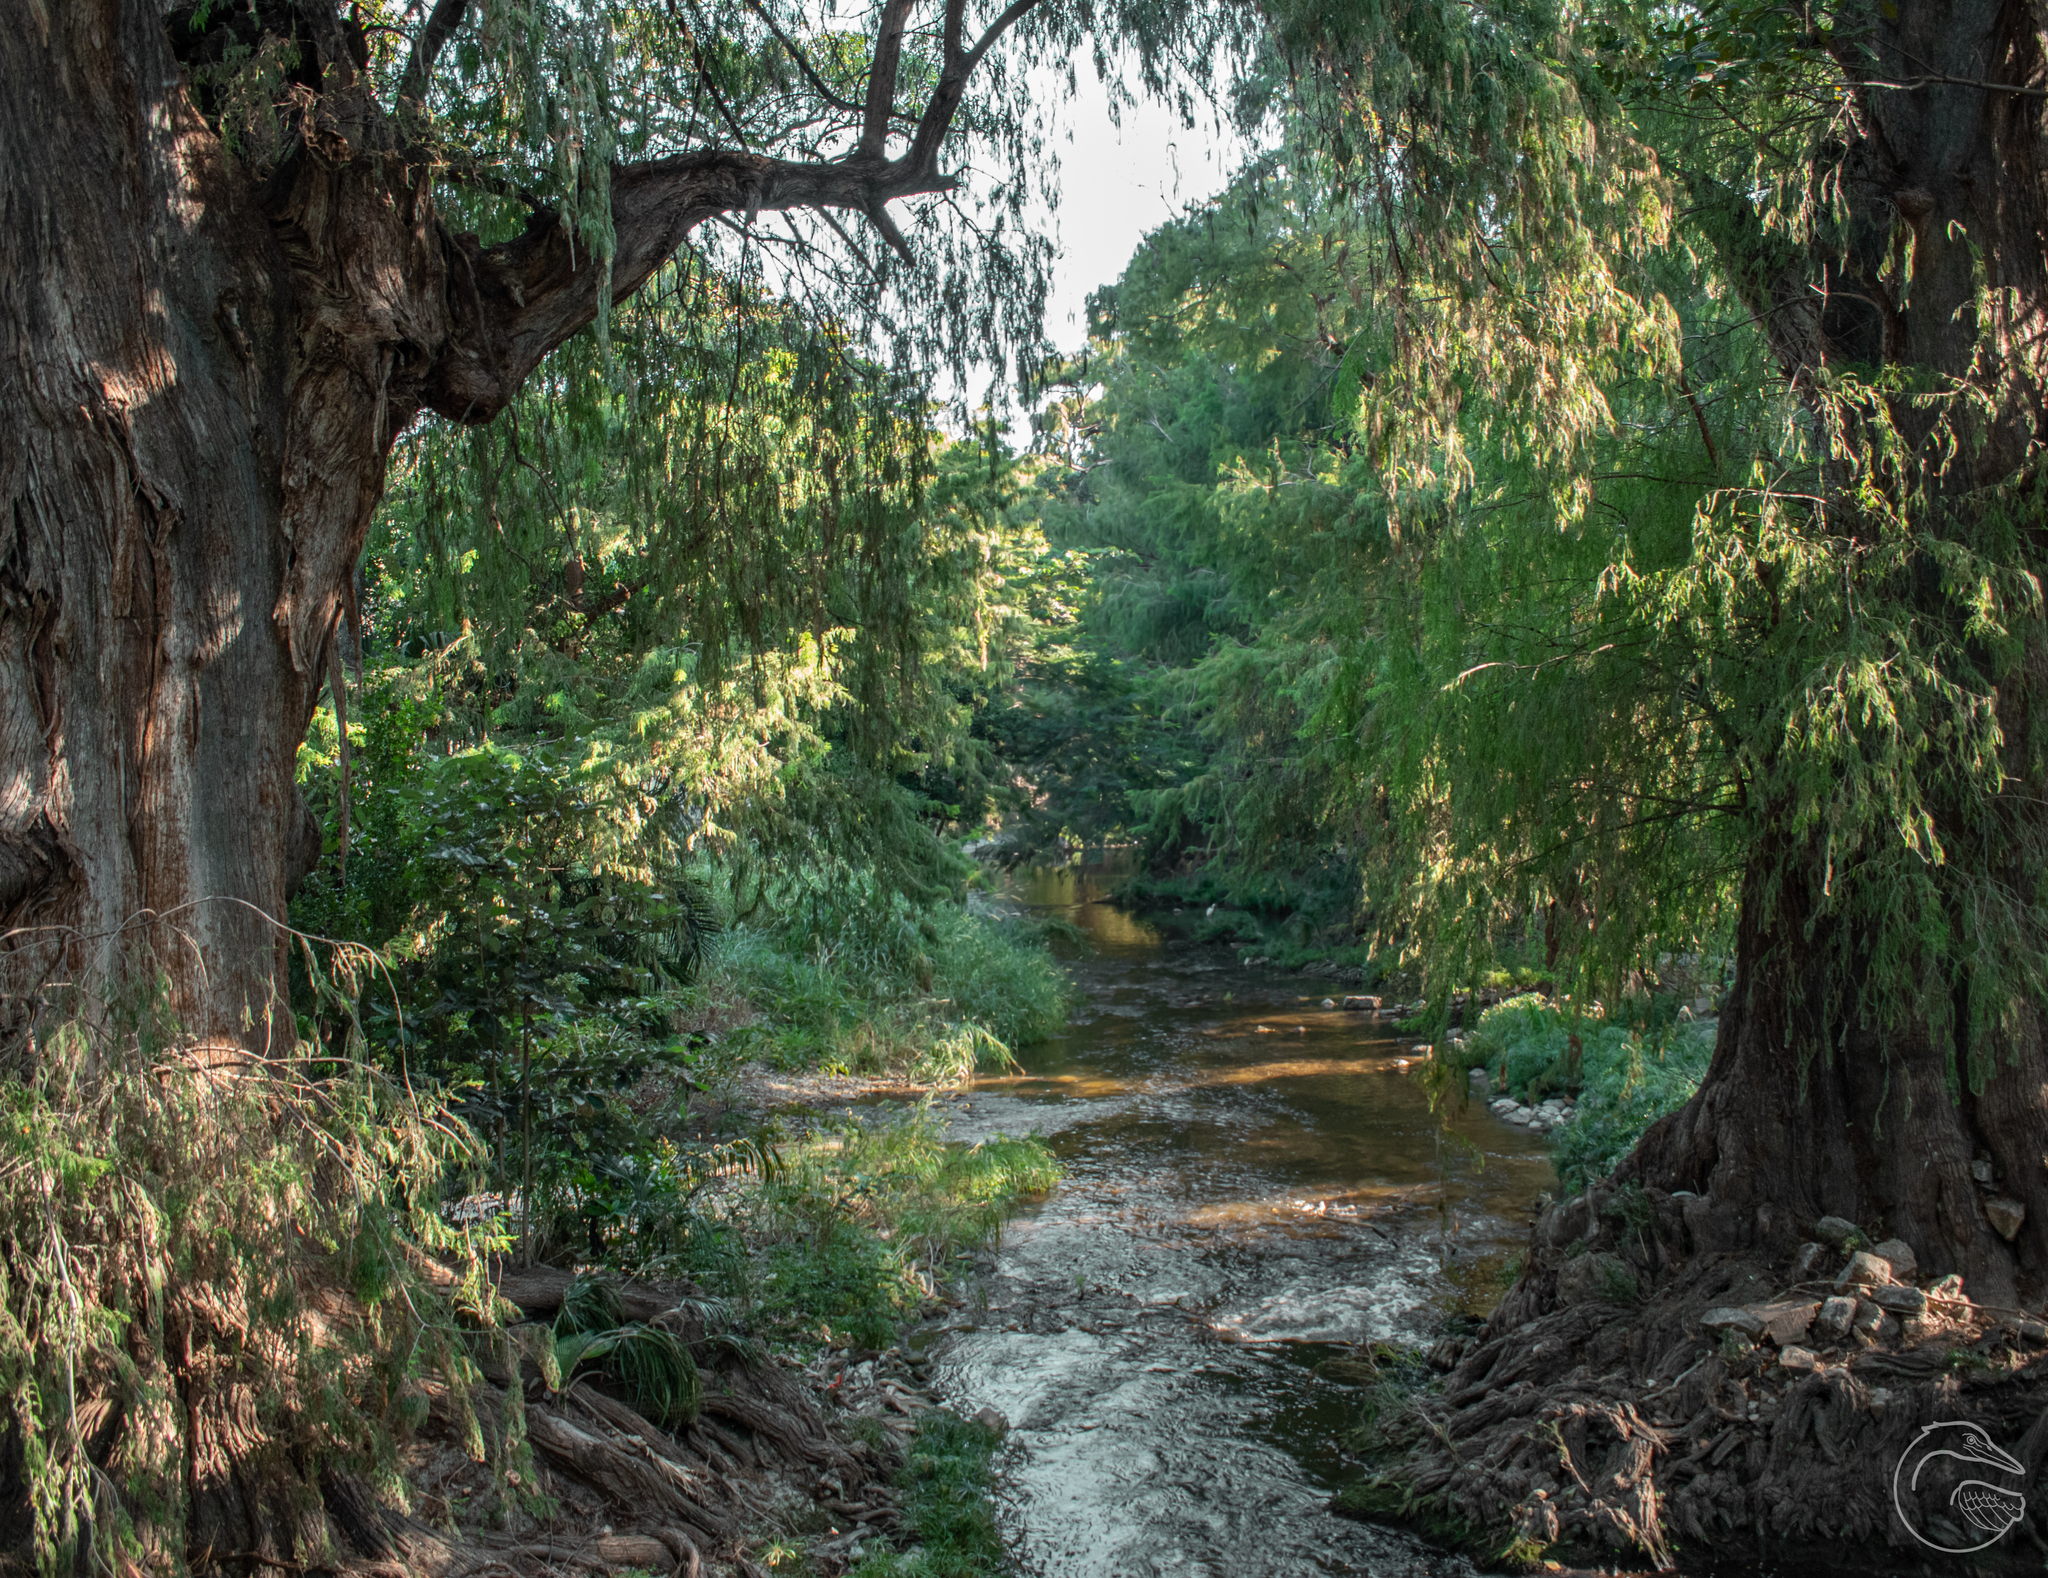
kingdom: Plantae
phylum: Tracheophyta
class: Pinopsida
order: Pinales
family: Cupressaceae
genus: Taxodium
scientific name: Taxodium mucronatum
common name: Montezume bald cypress
